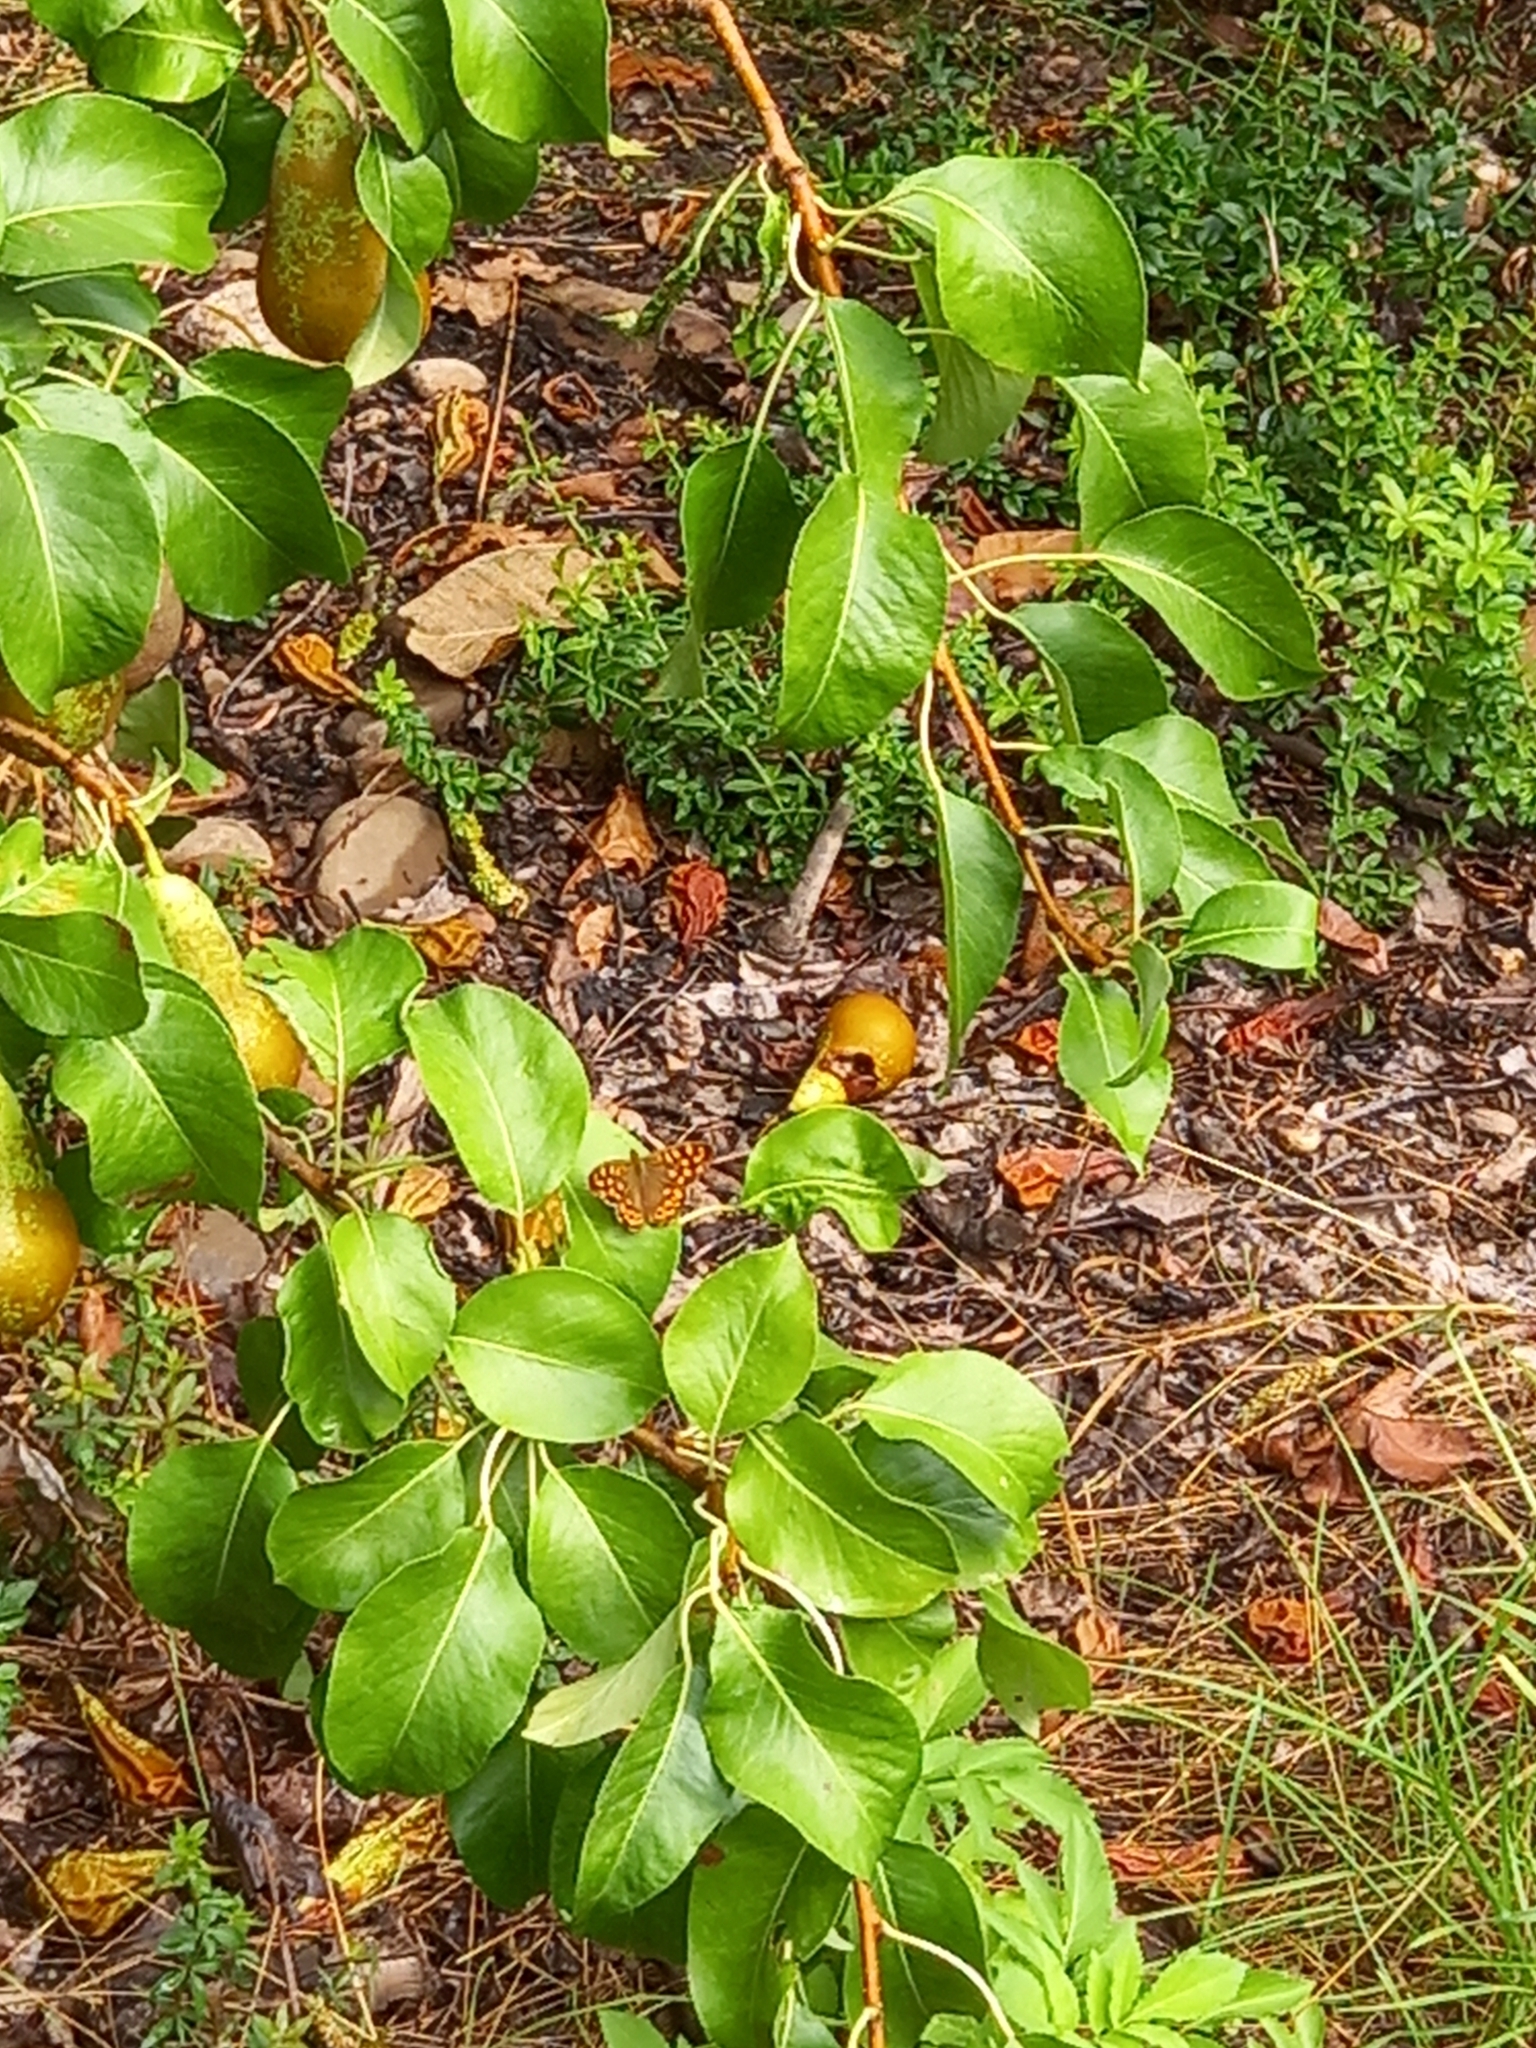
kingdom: Animalia
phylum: Arthropoda
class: Insecta
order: Lepidoptera
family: Nymphalidae
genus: Pararge
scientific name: Pararge aegeria
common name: Speckled wood
